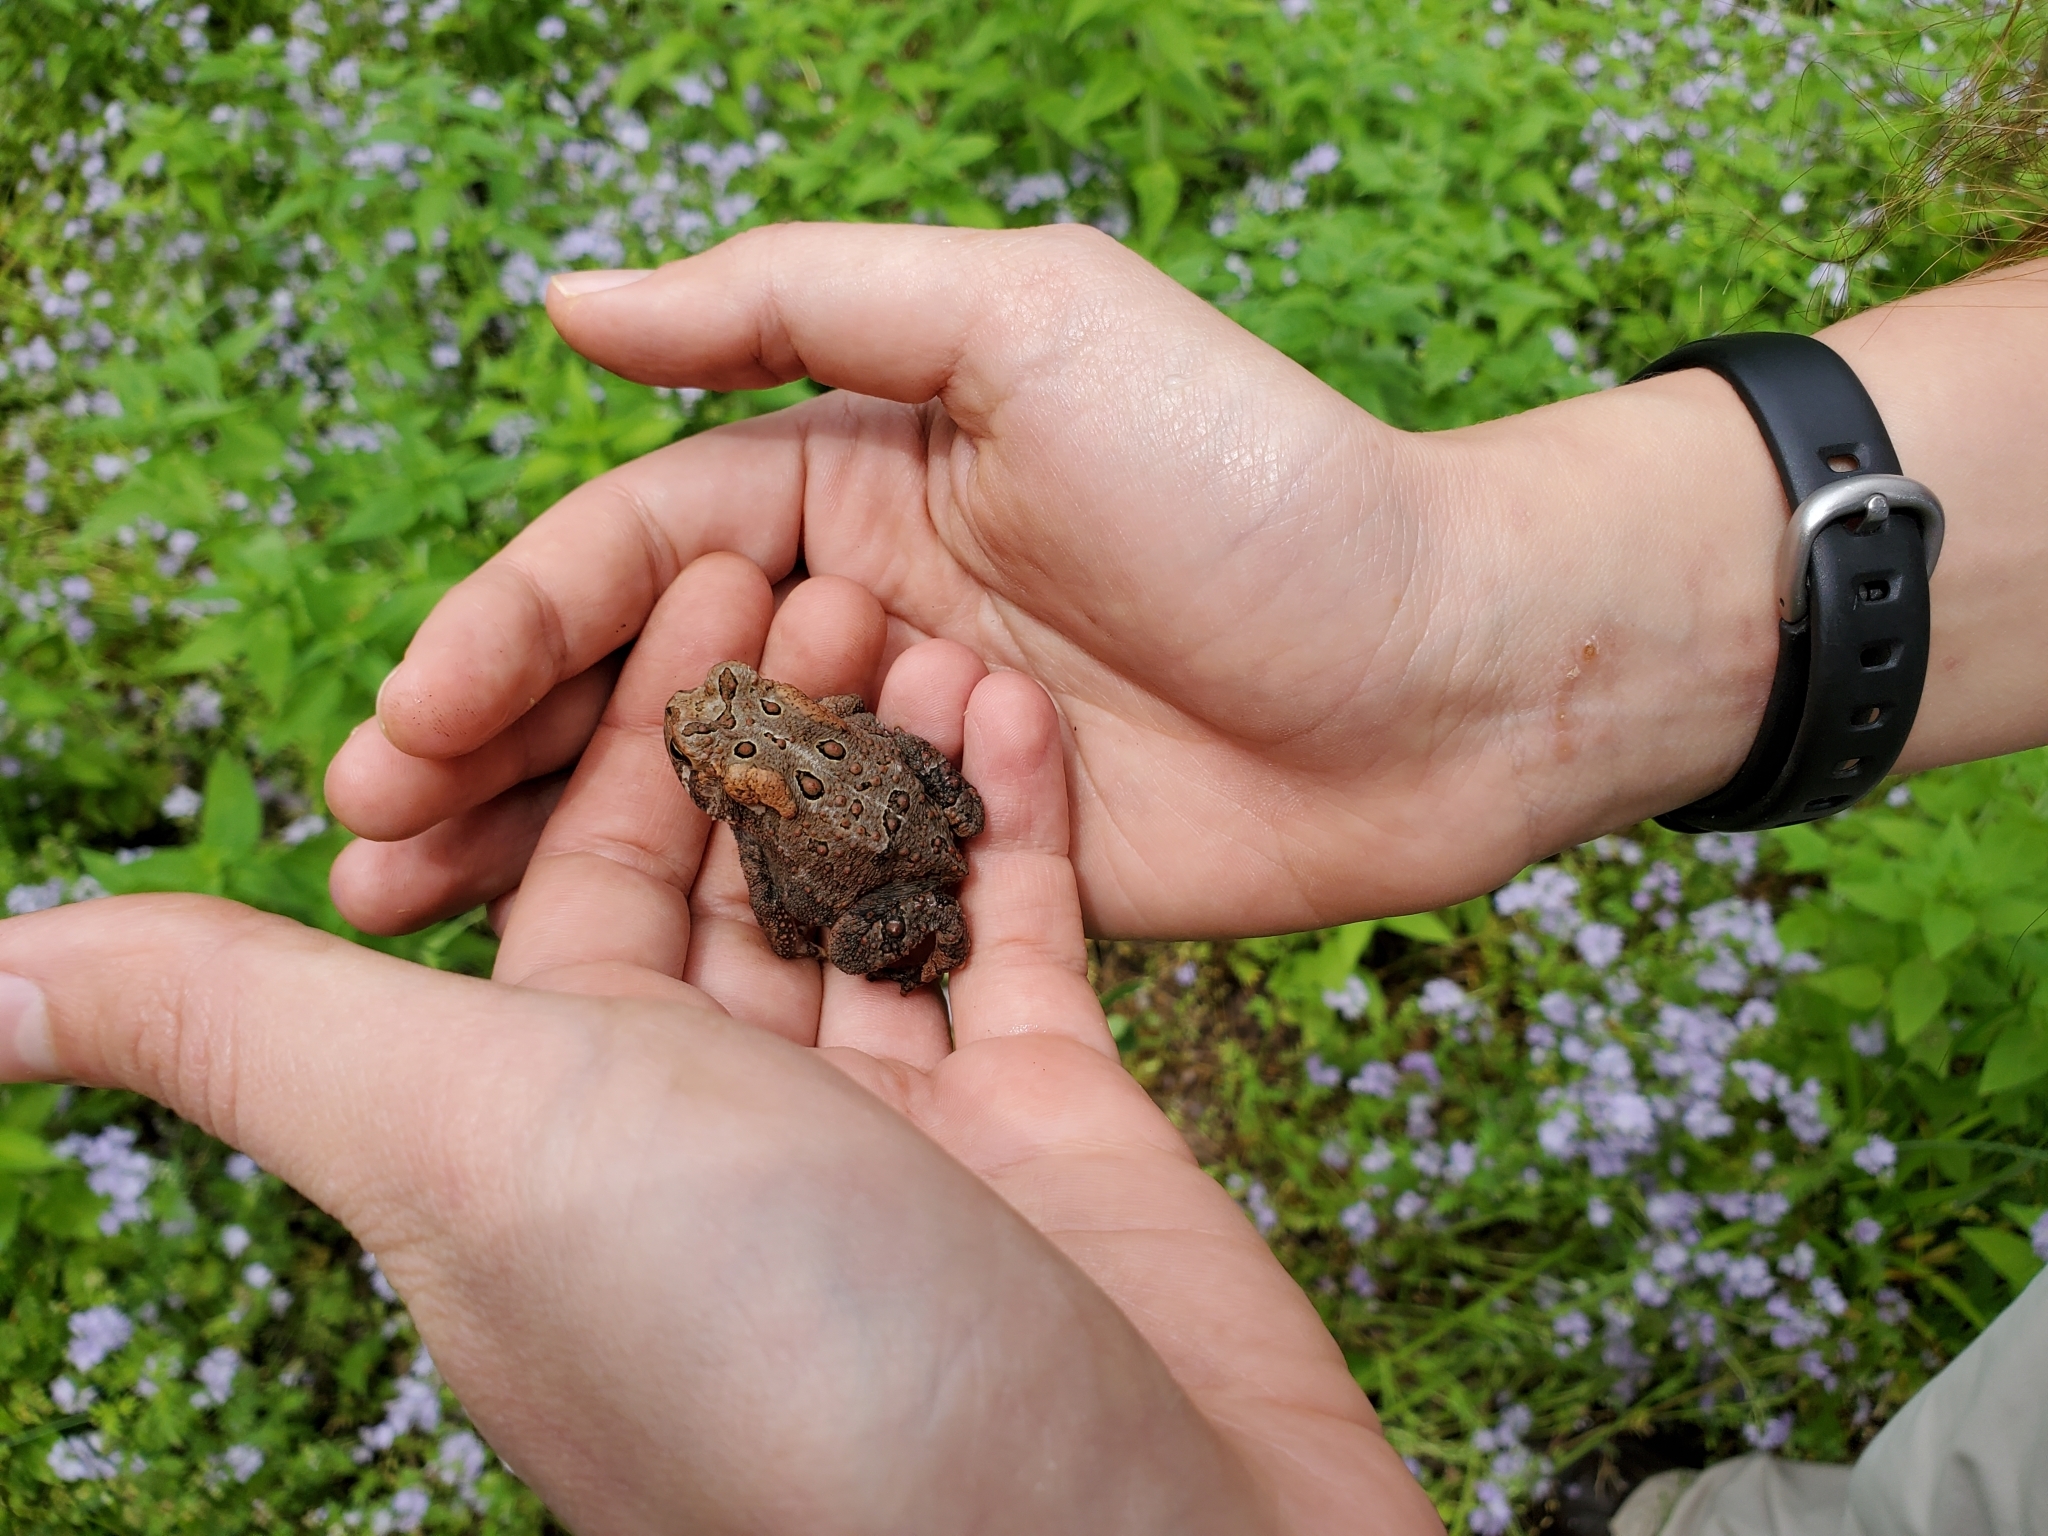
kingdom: Animalia
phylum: Chordata
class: Amphibia
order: Anura
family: Bufonidae
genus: Anaxyrus
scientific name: Anaxyrus americanus
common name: American toad
